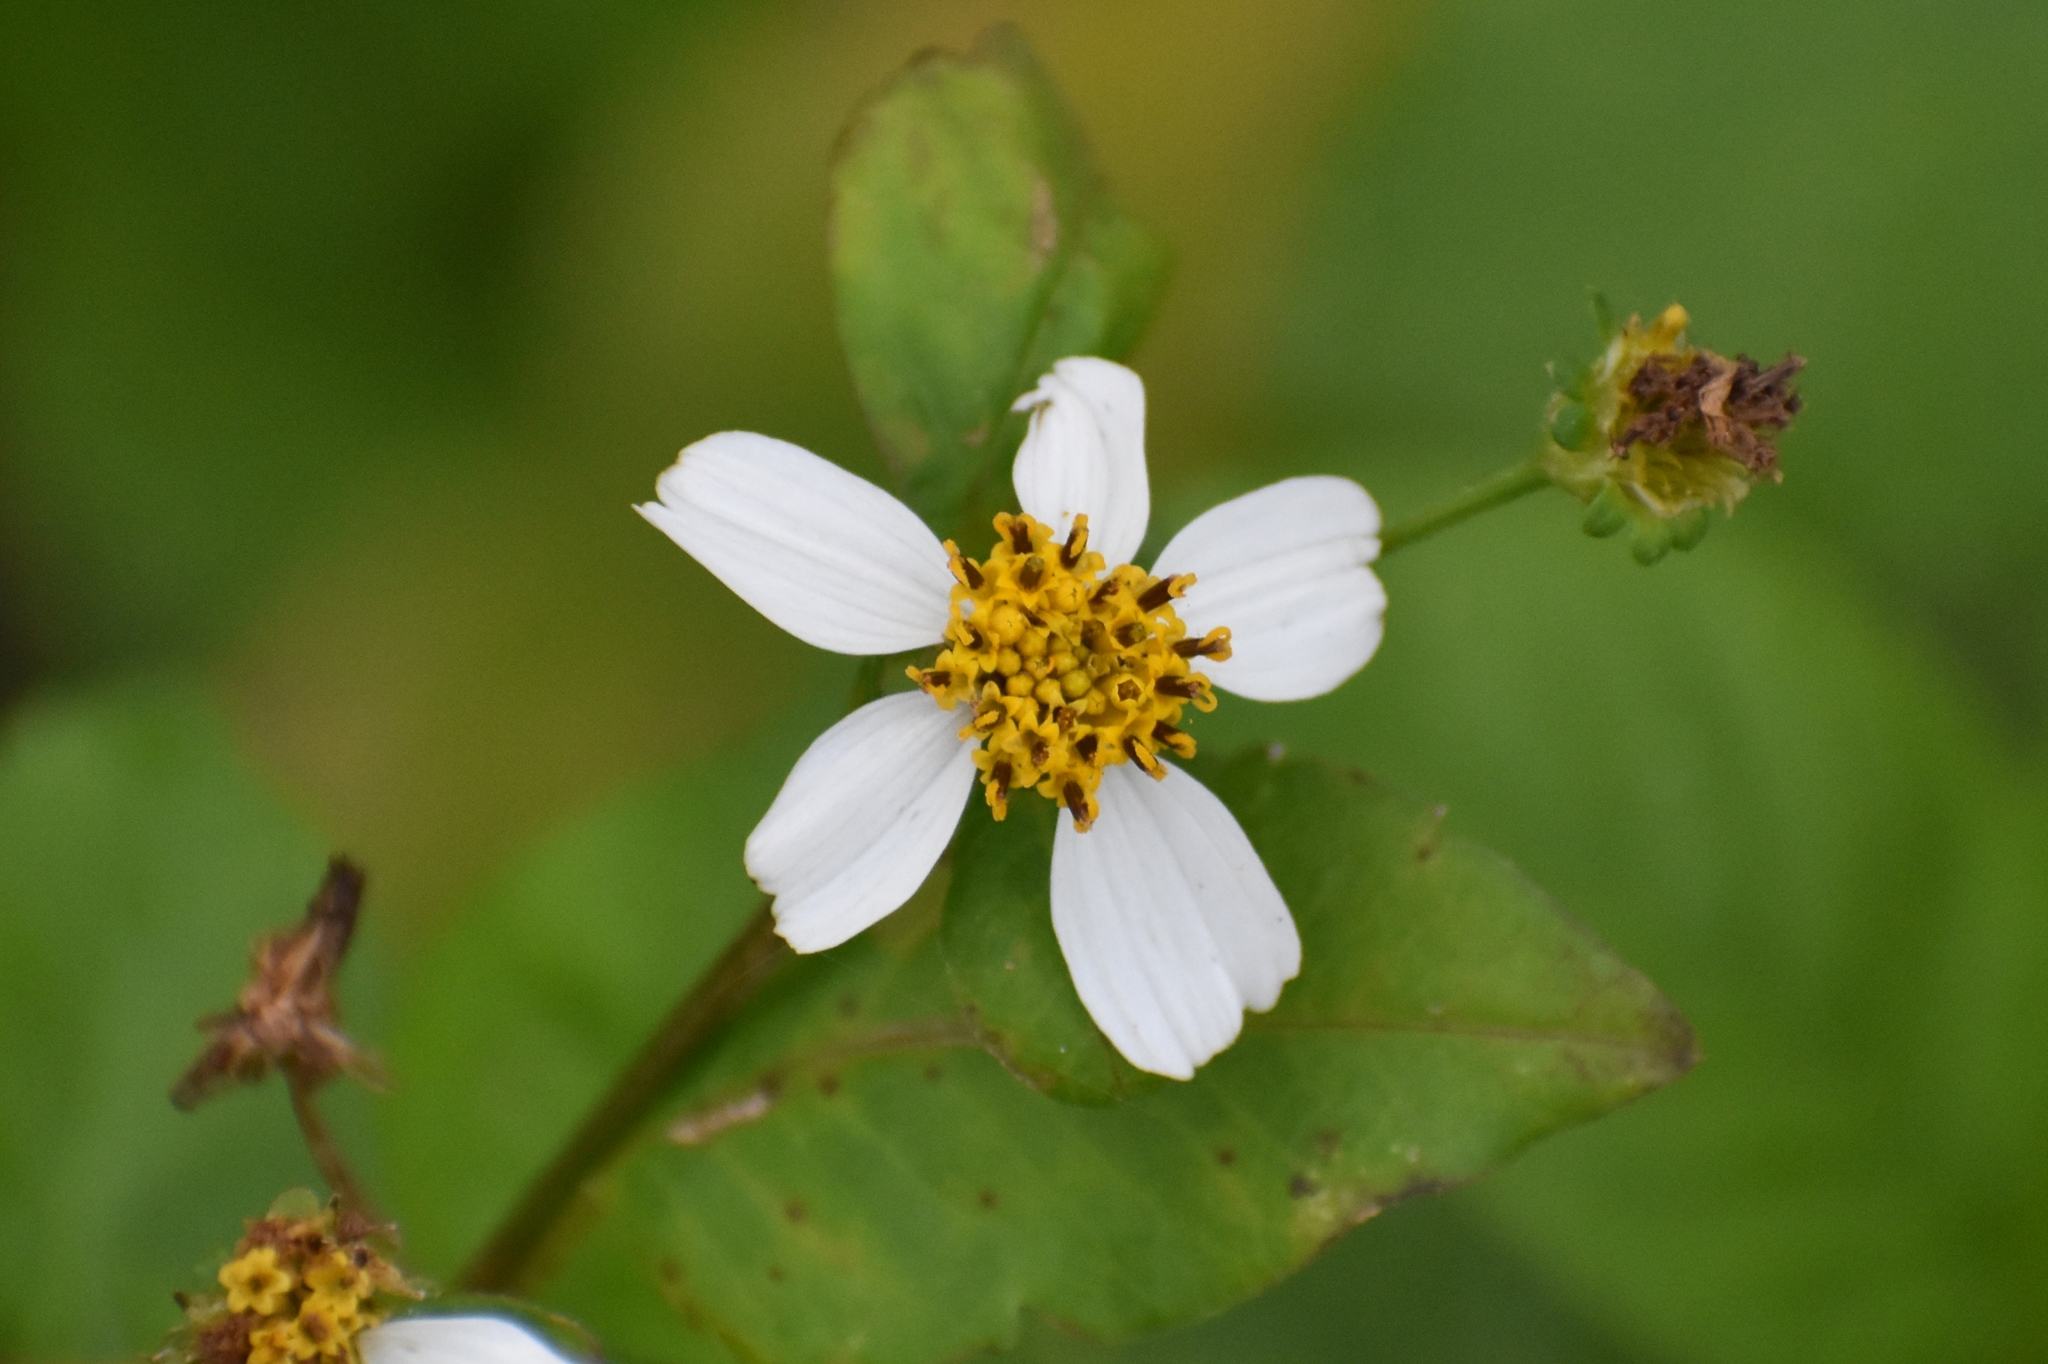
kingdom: Plantae
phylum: Tracheophyta
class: Magnoliopsida
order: Asterales
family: Asteraceae
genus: Bidens
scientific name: Bidens alba
